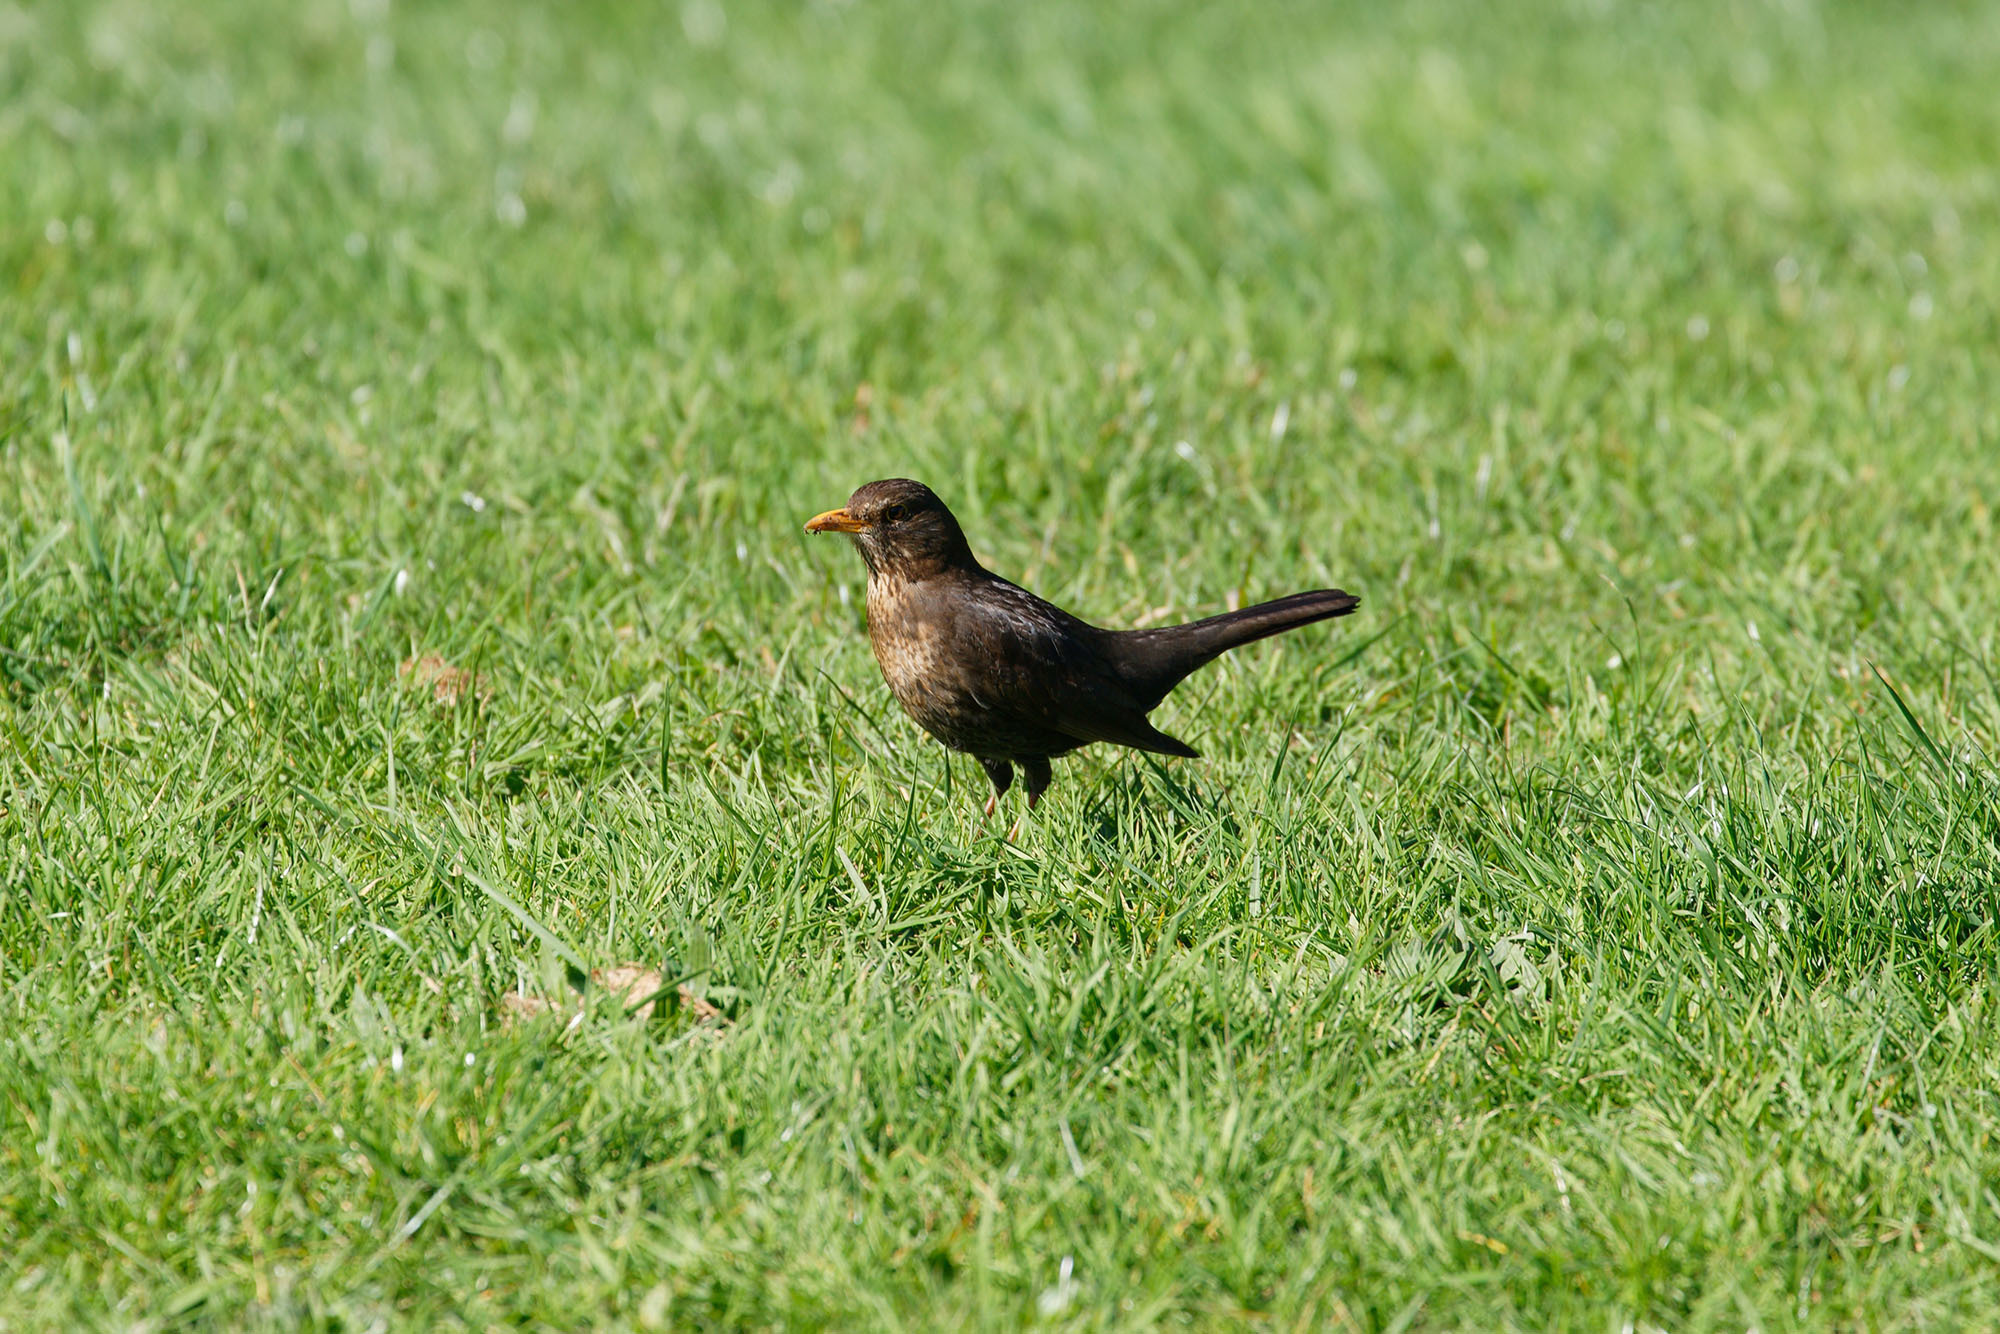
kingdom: Animalia
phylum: Chordata
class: Aves
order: Passeriformes
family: Turdidae
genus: Turdus
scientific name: Turdus merula
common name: Common blackbird
